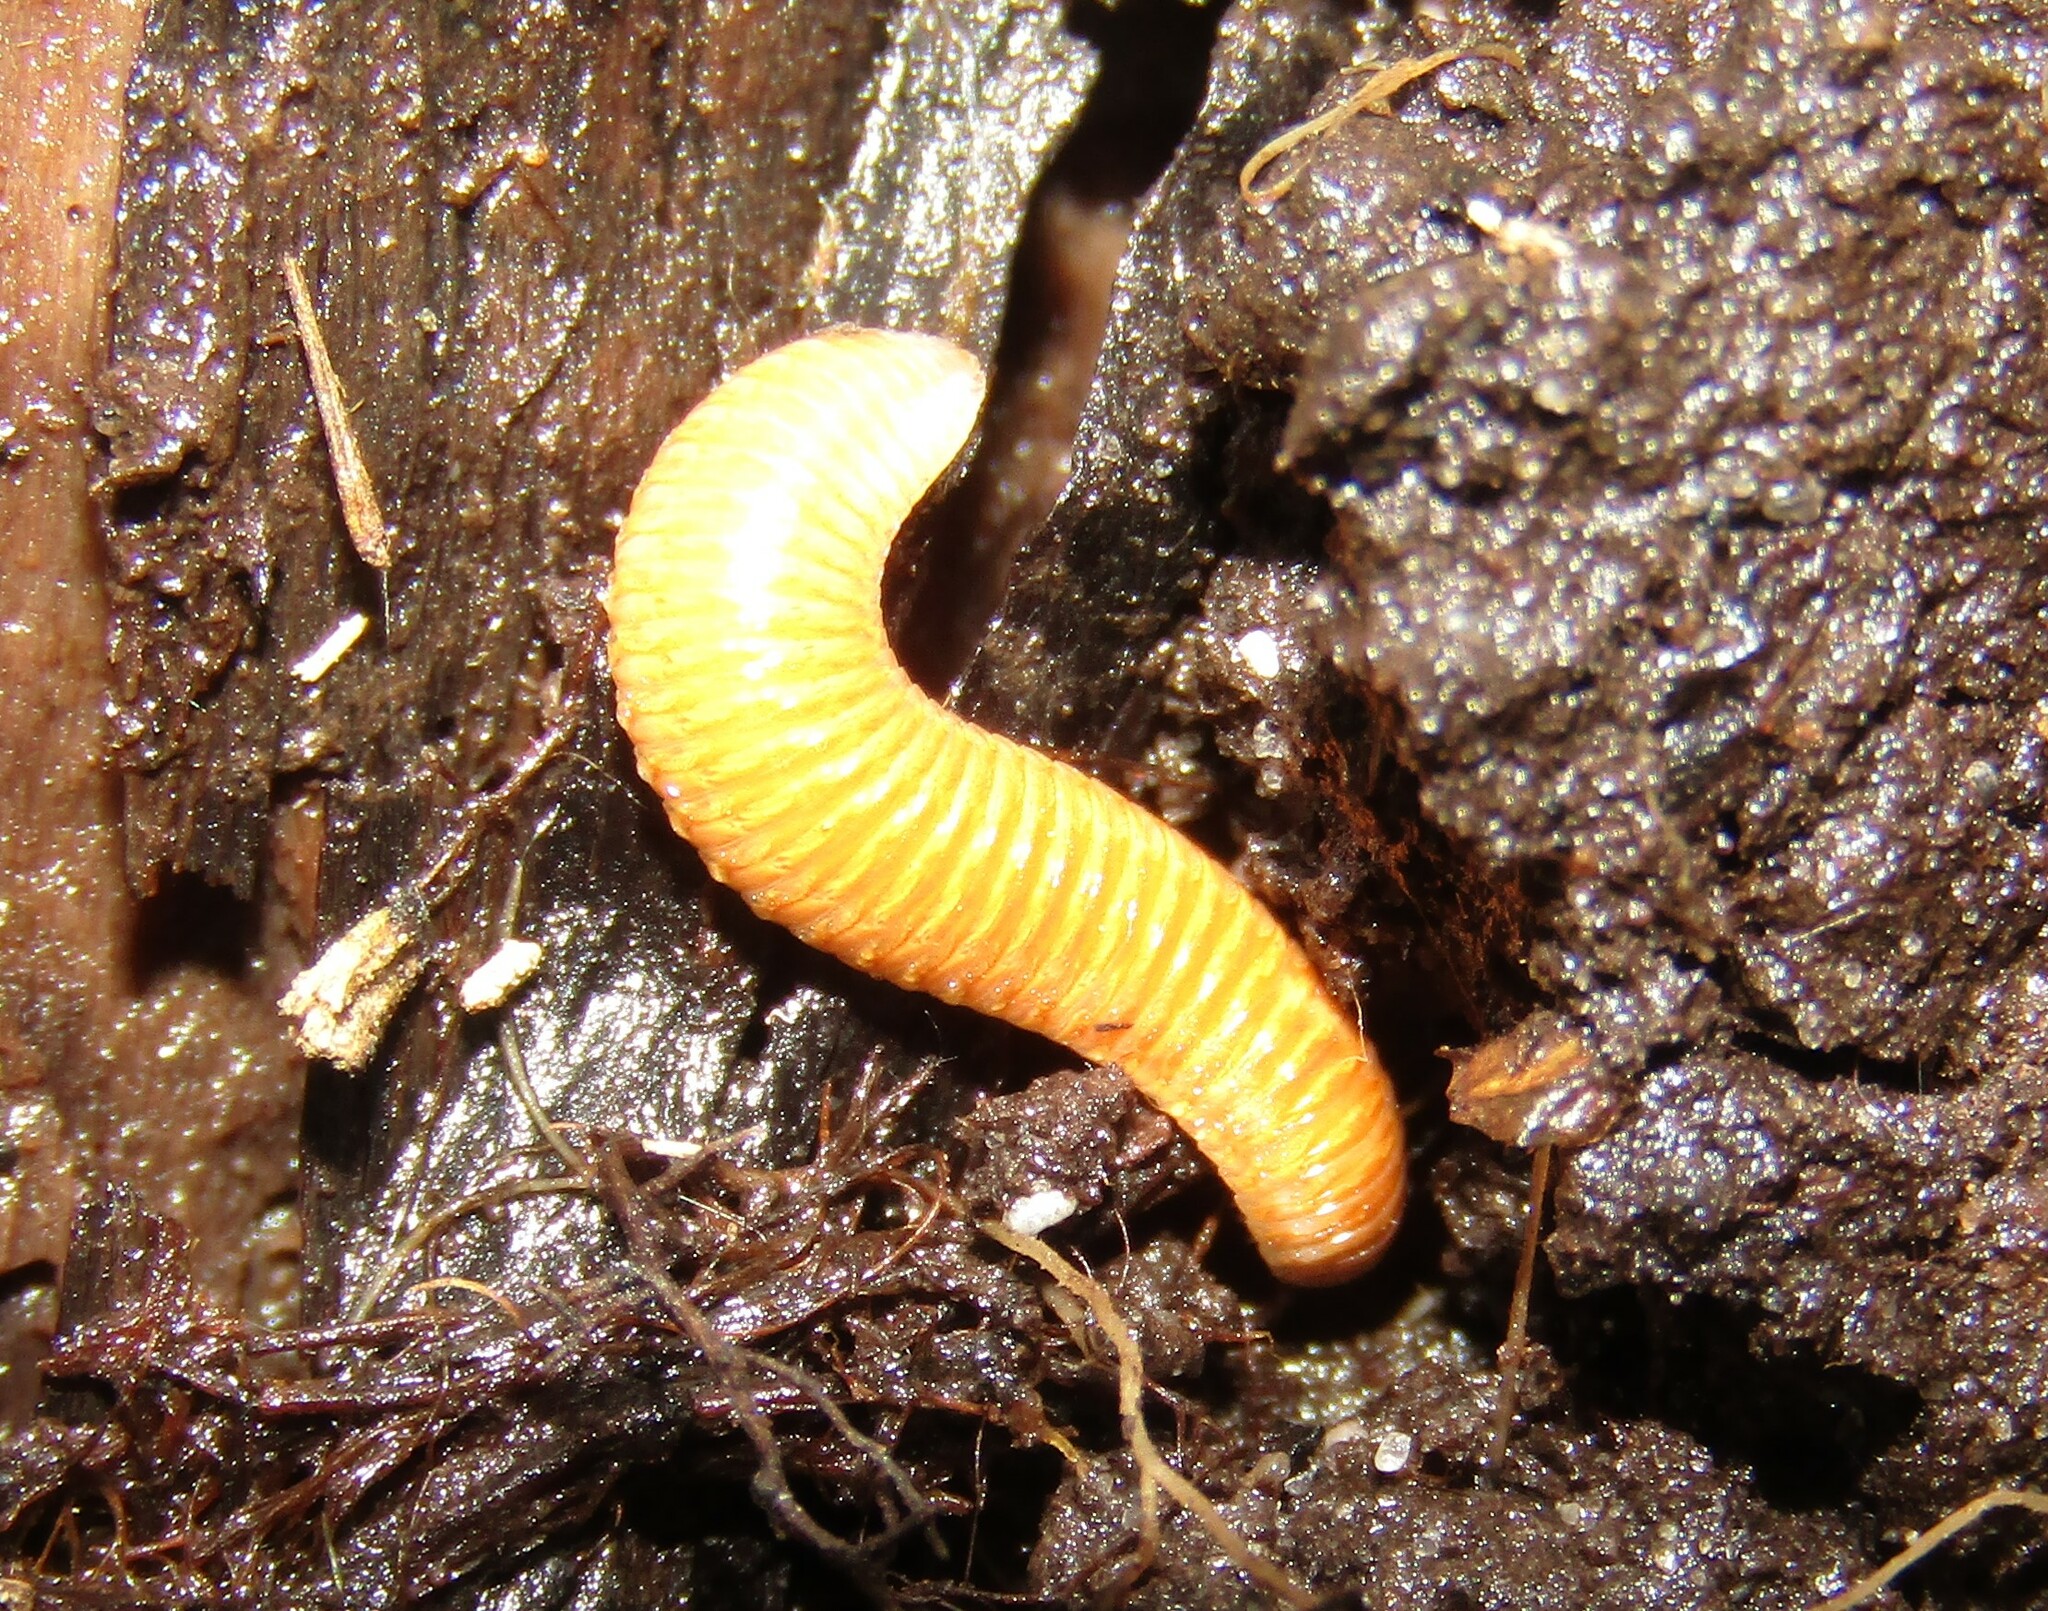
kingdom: Animalia
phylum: Arthropoda
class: Diplopoda
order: Polyzoniida
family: Polyzoniidae
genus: Polyzonium
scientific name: Polyzonium germanicum
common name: Boring millipede
